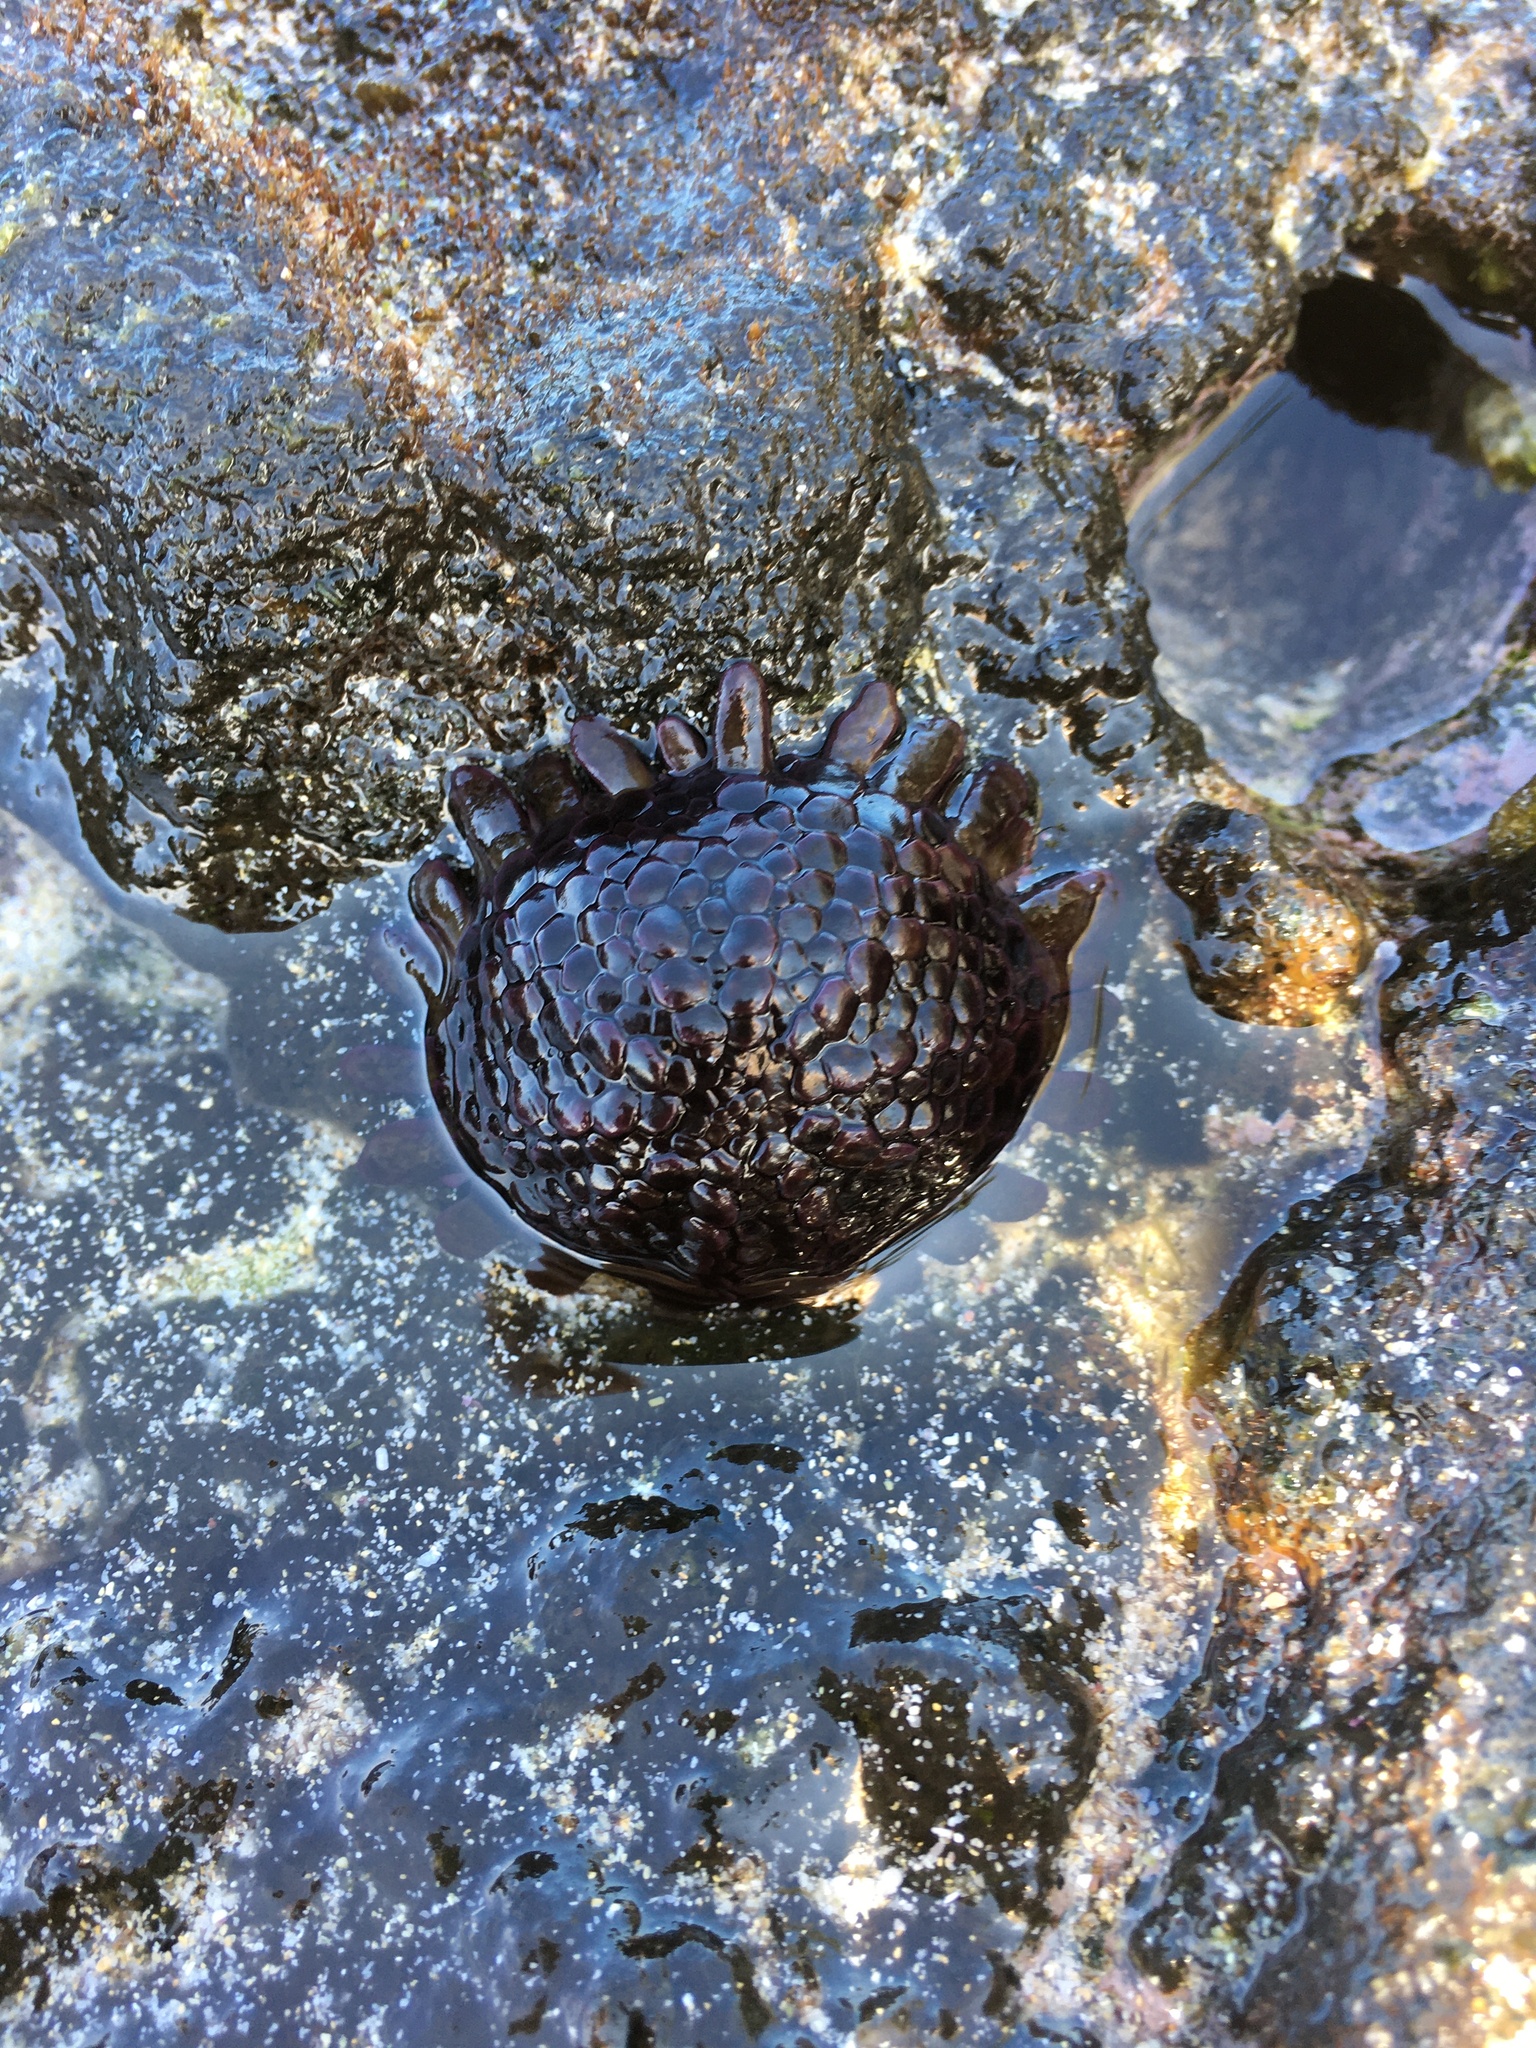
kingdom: Animalia
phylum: Echinodermata
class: Echinoidea
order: Camarodonta
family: Echinometridae
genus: Colobocentrotus
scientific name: Colobocentrotus atratus
